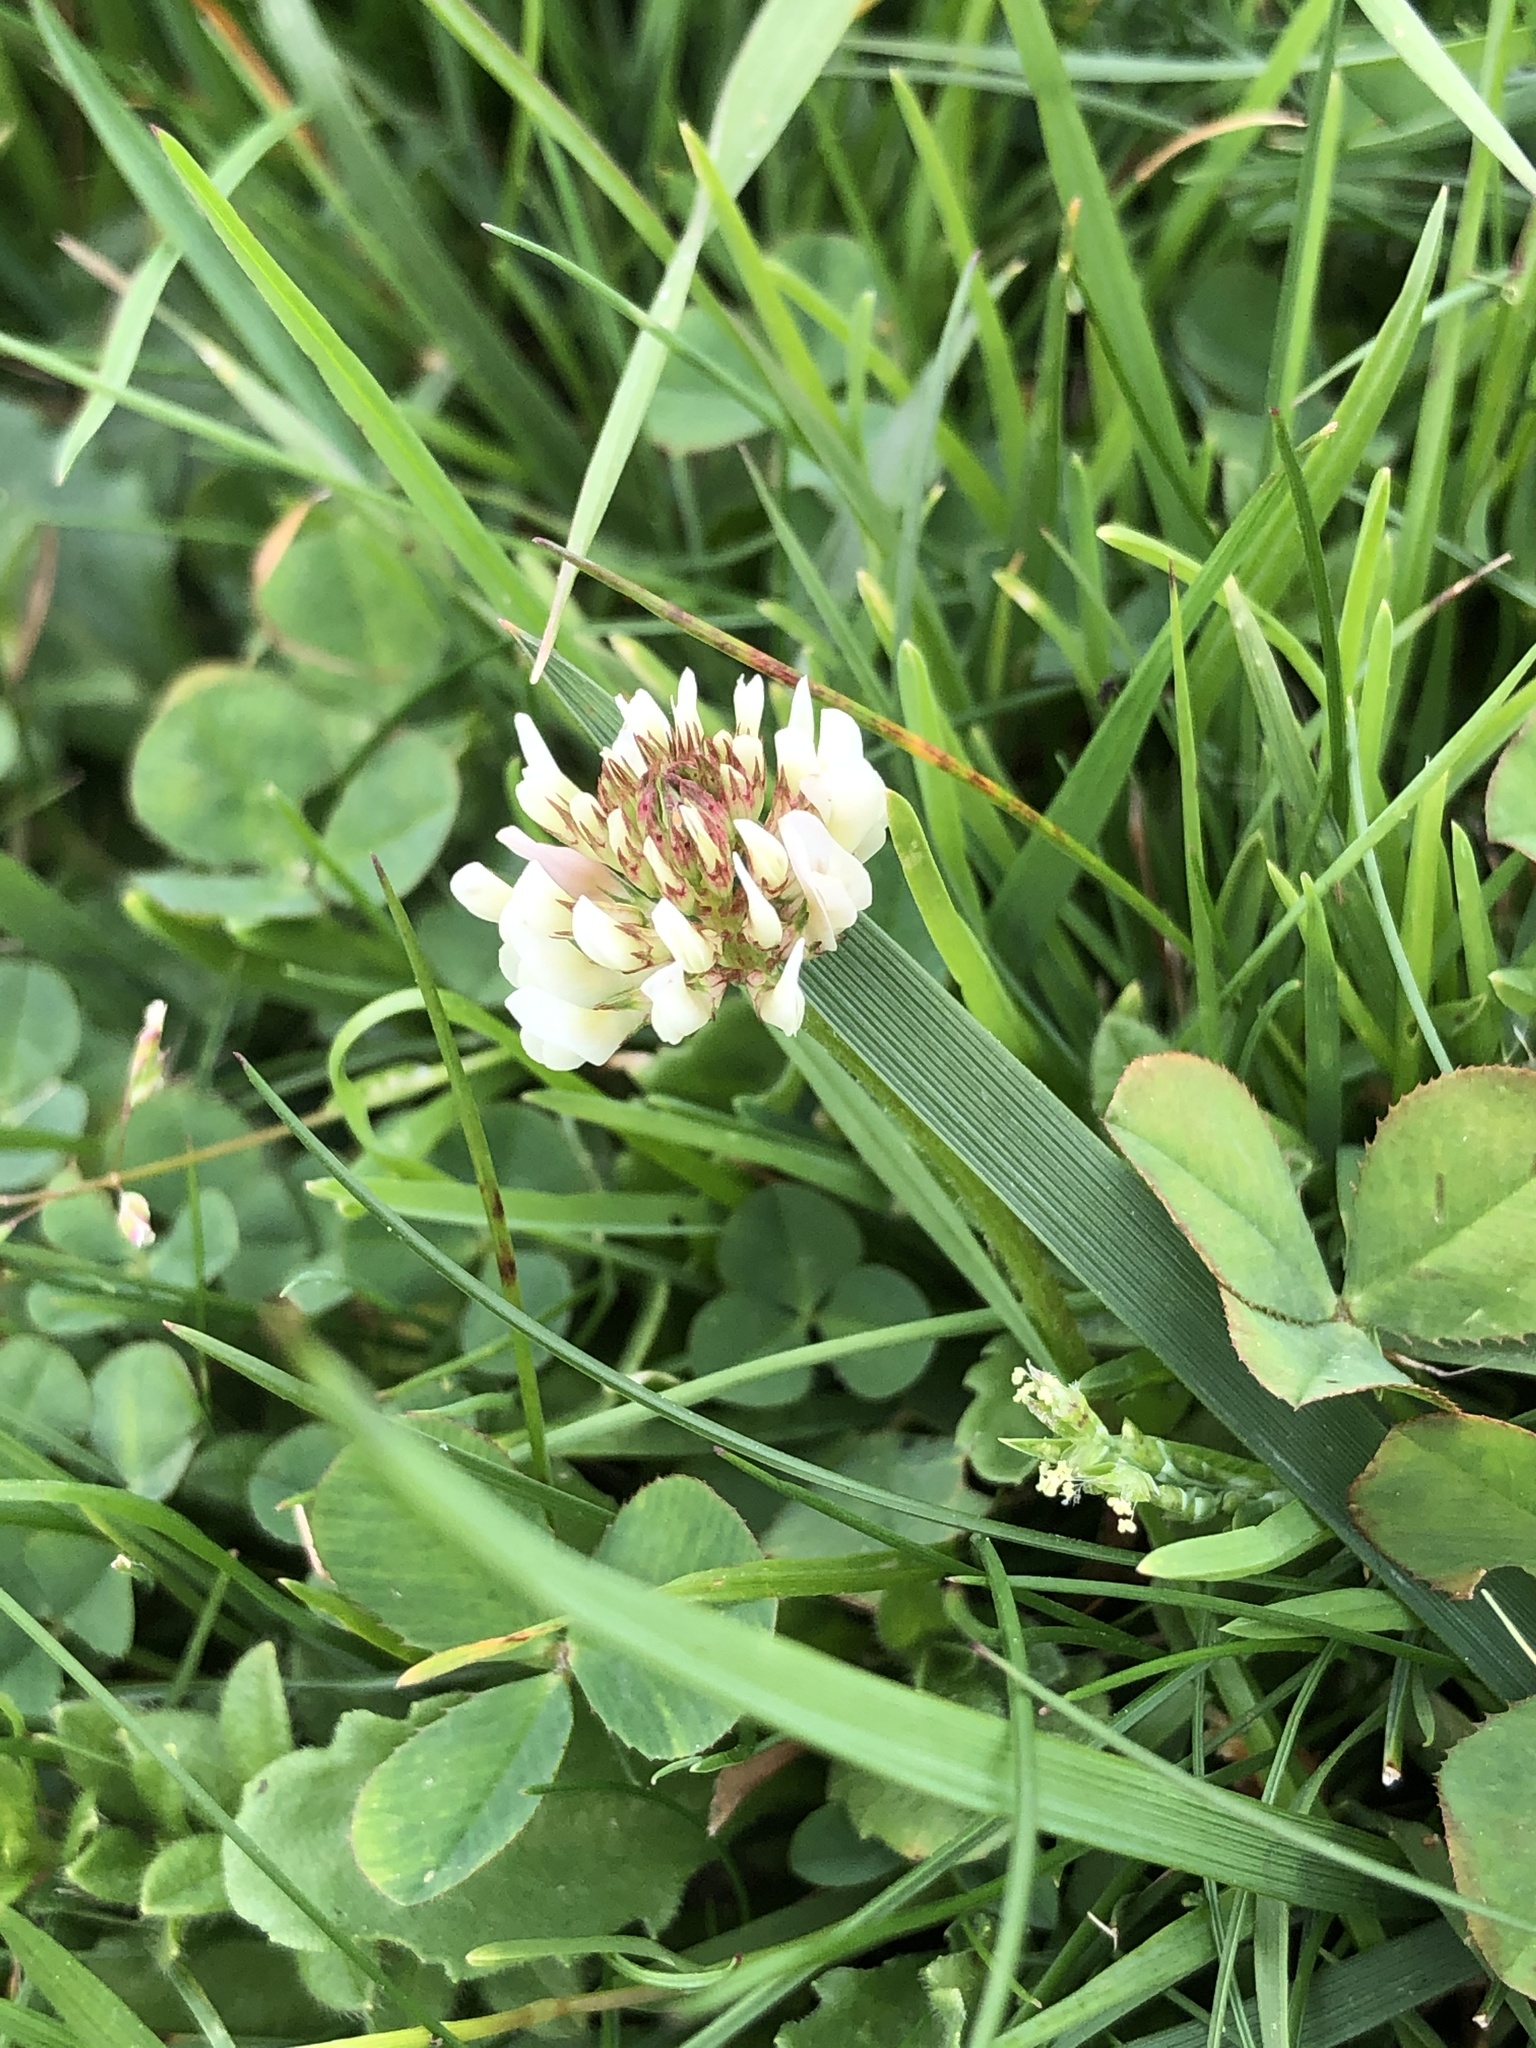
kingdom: Plantae
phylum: Tracheophyta
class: Magnoliopsida
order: Fabales
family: Fabaceae
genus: Trifolium
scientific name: Trifolium repens
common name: White clover
